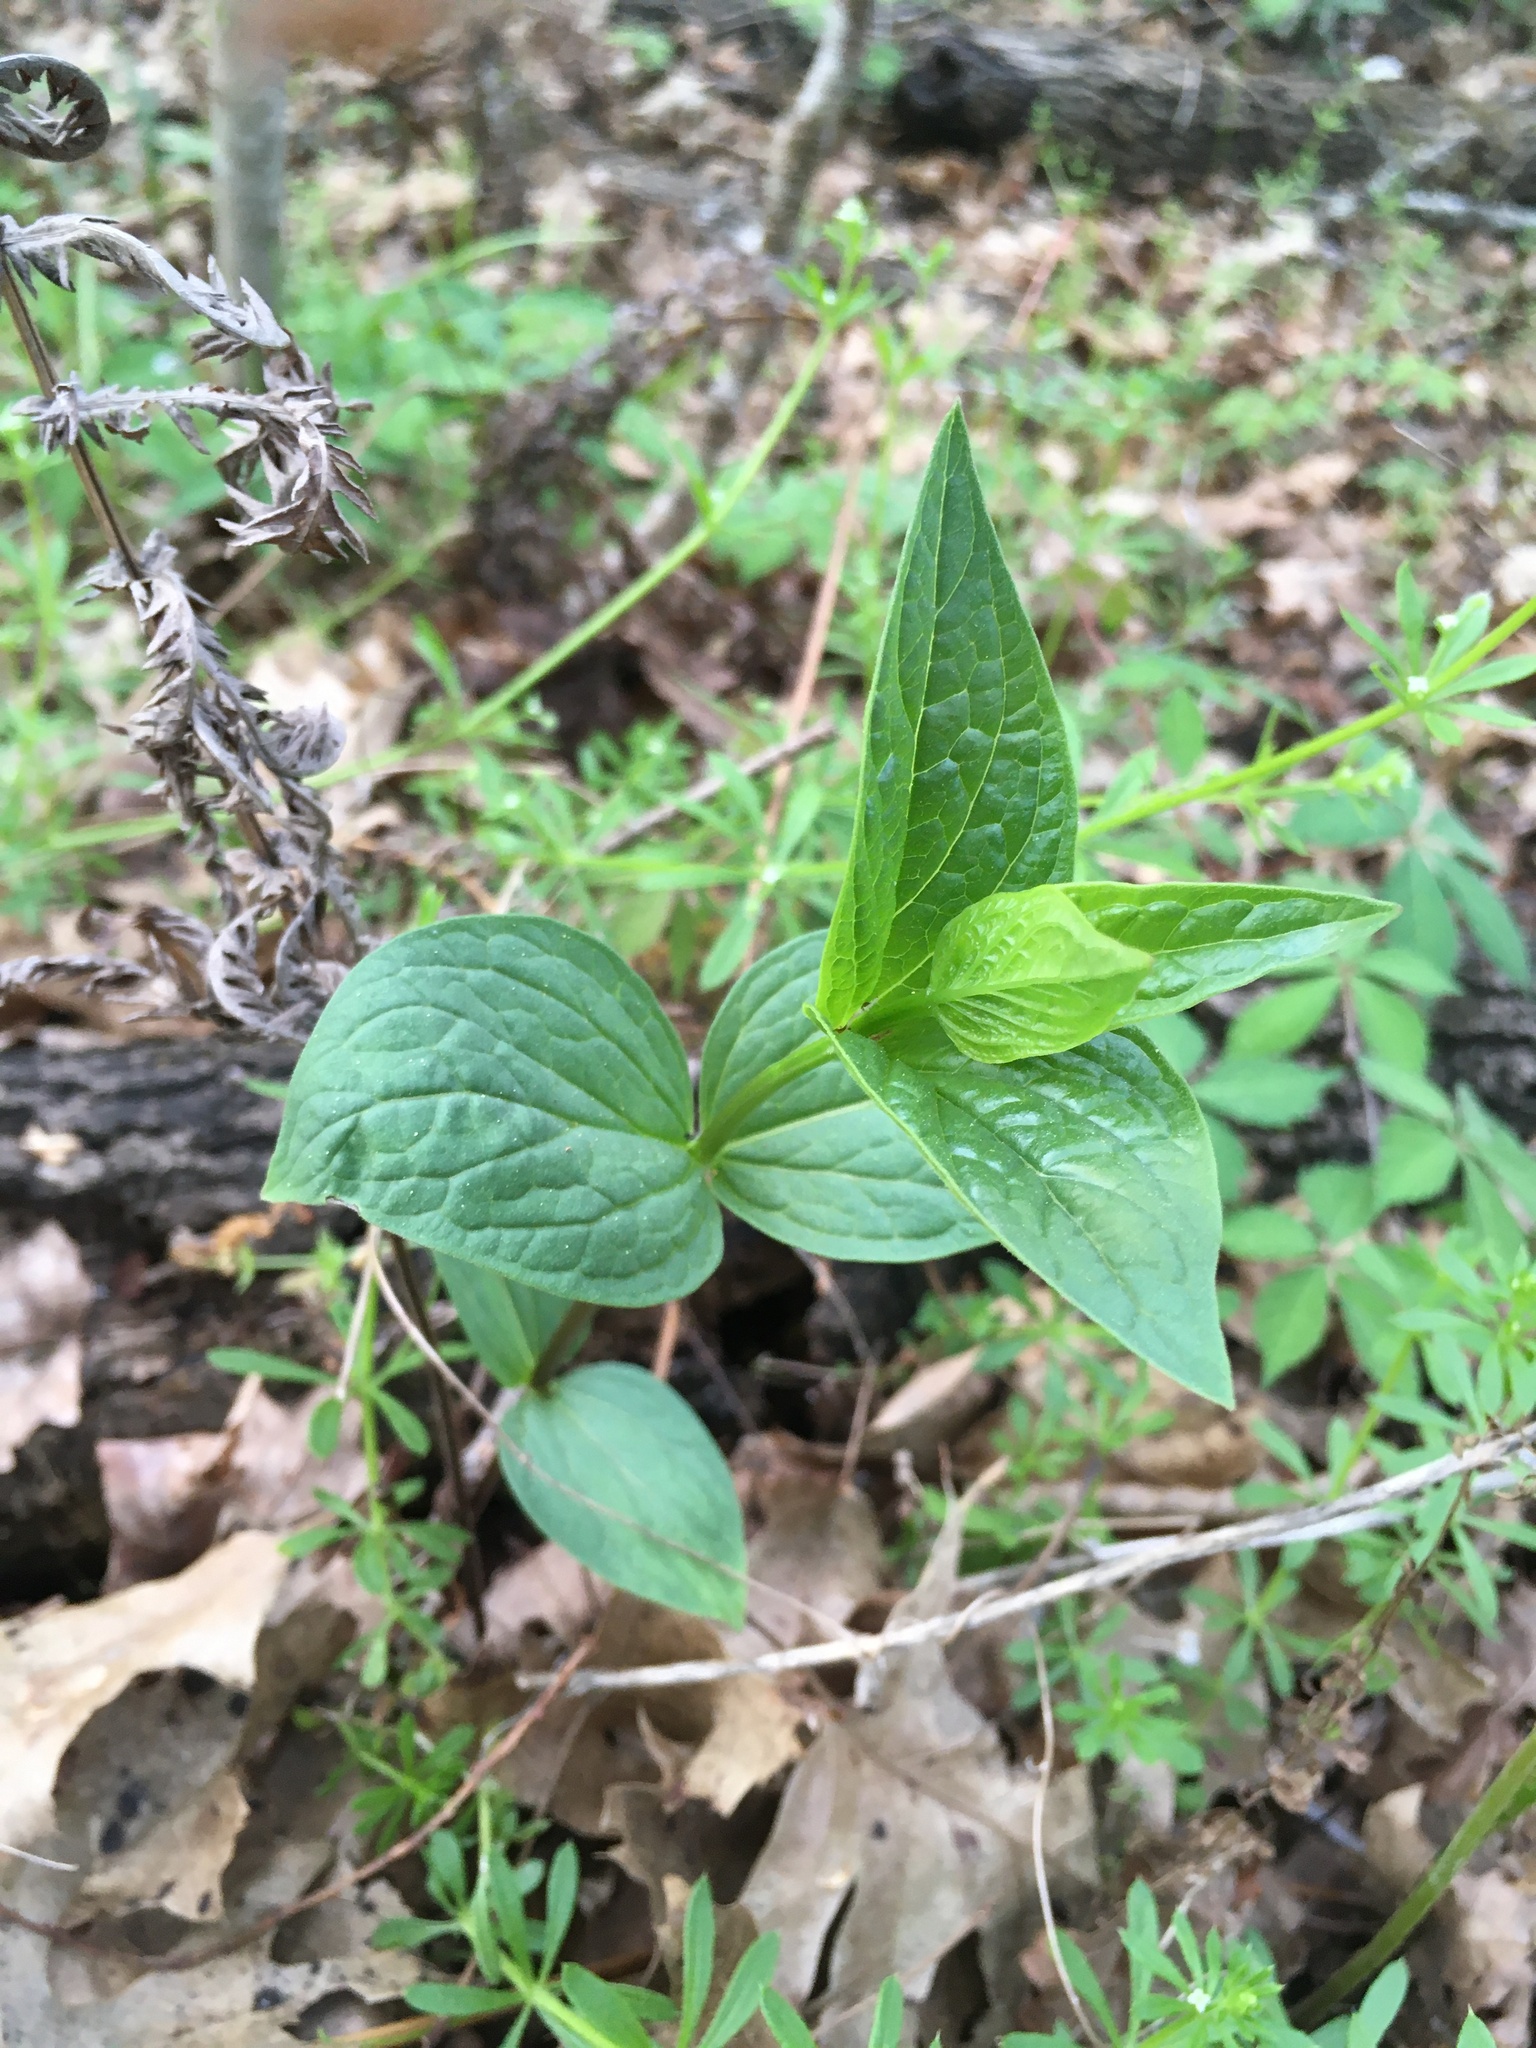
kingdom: Plantae
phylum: Tracheophyta
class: Magnoliopsida
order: Gentianales
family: Loganiaceae
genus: Spigelia
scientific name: Spigelia marilandica
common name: Indian-pink
